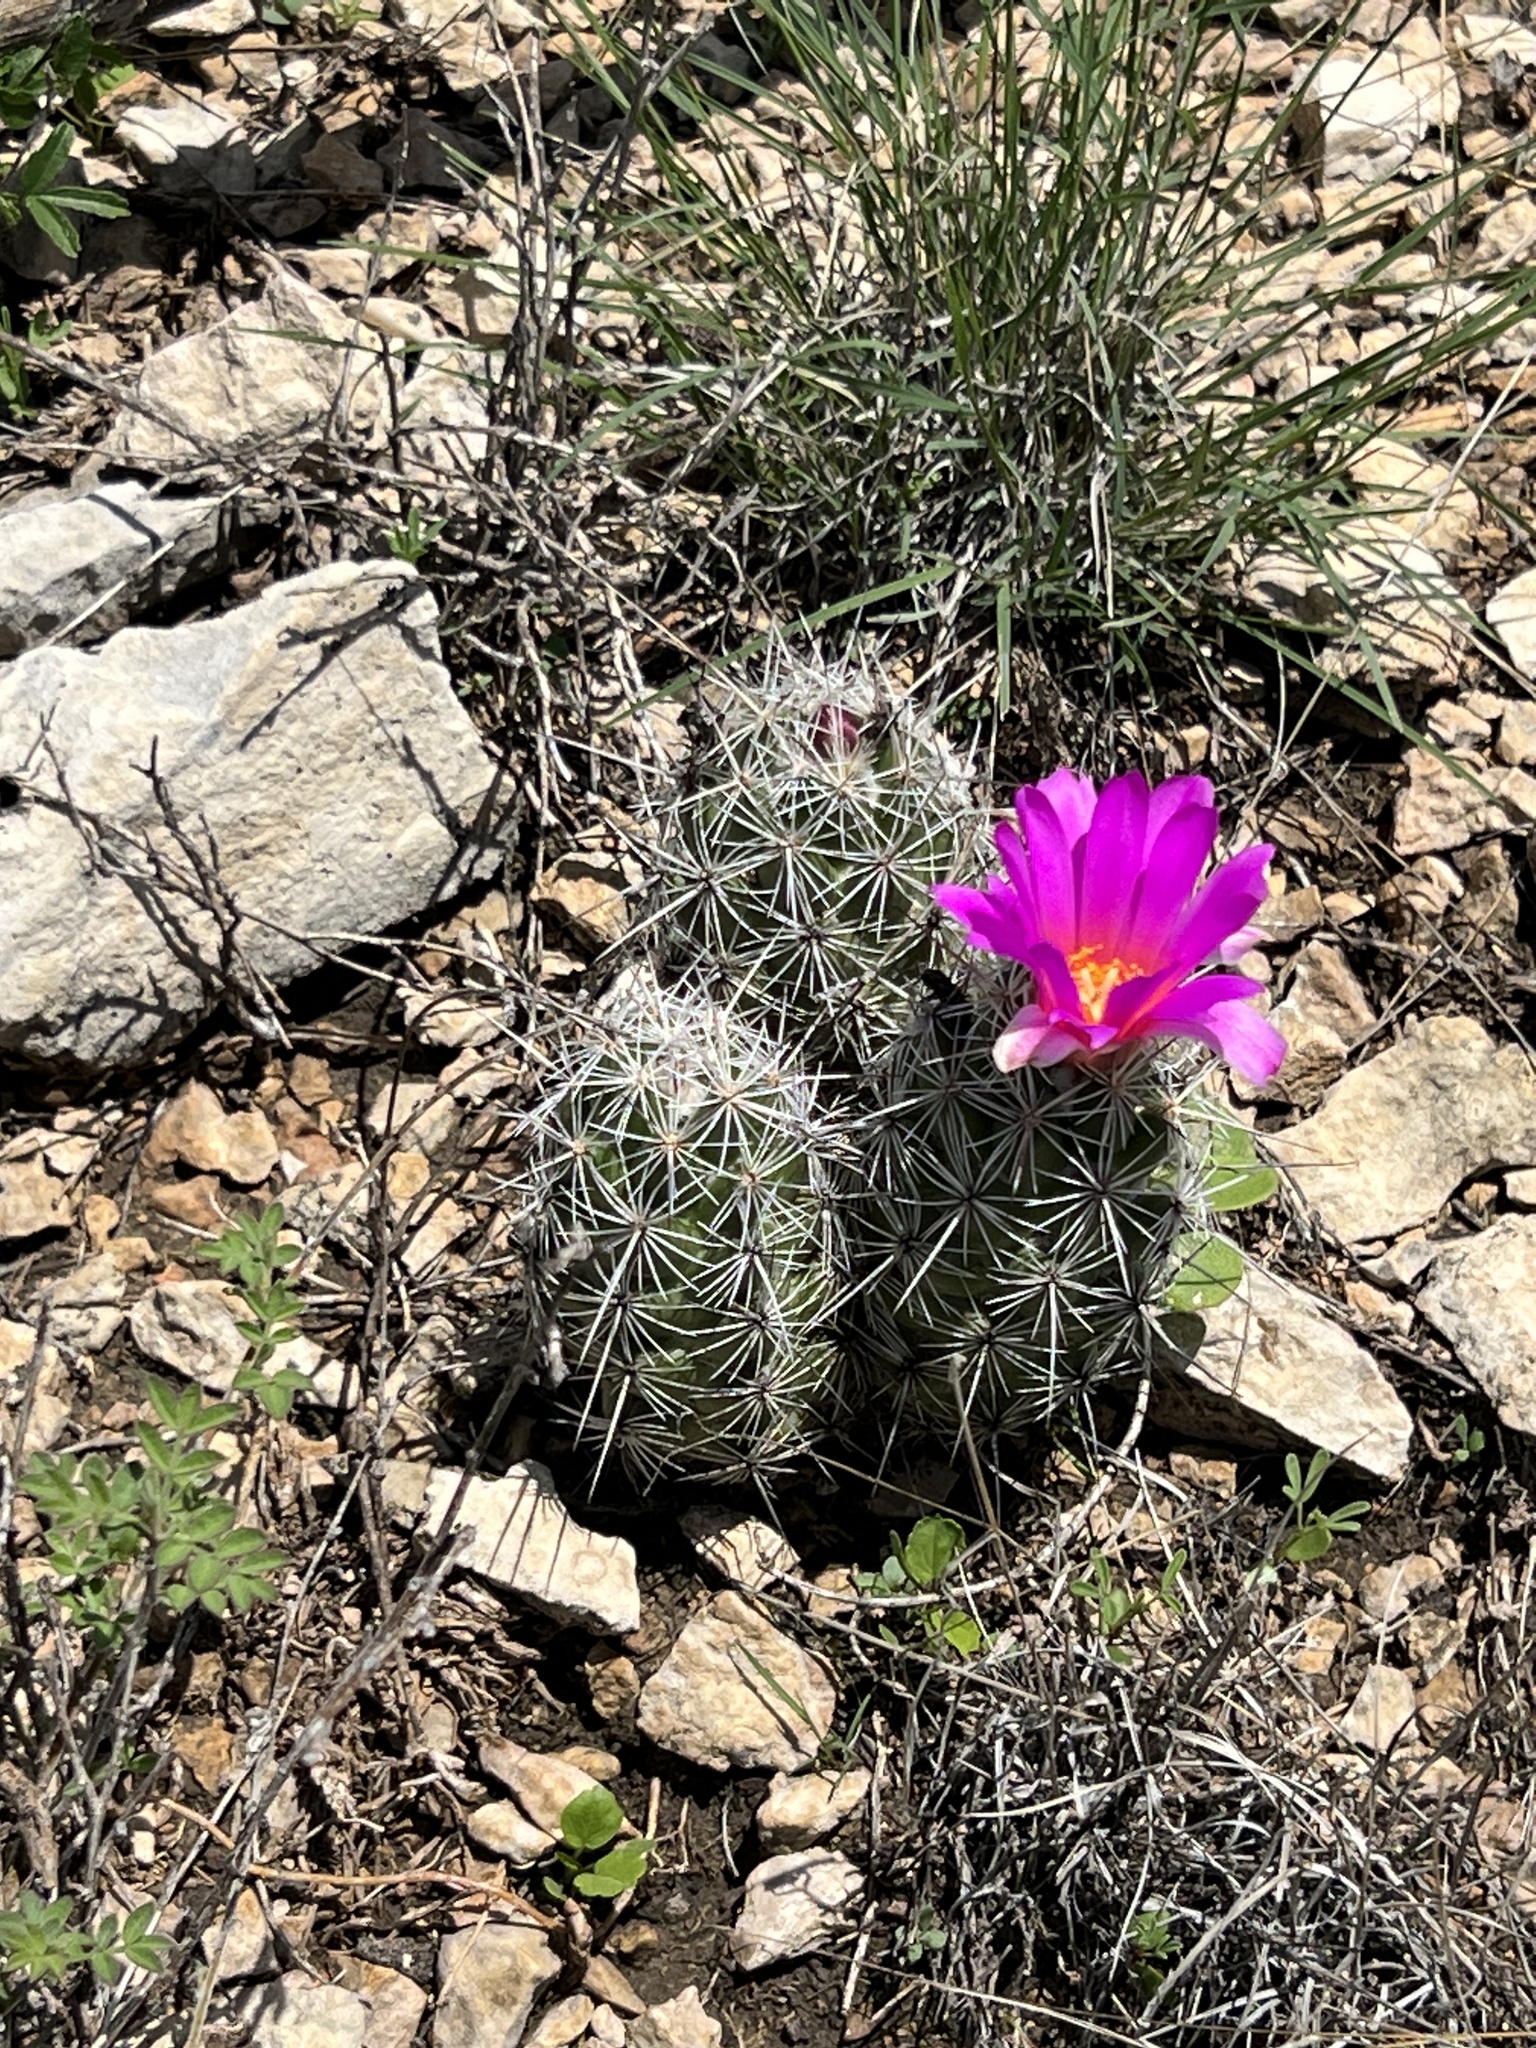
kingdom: Plantae
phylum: Tracheophyta
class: Magnoliopsida
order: Caryophyllales
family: Cactaceae
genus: Cochemiea
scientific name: Cochemiea conoidea
